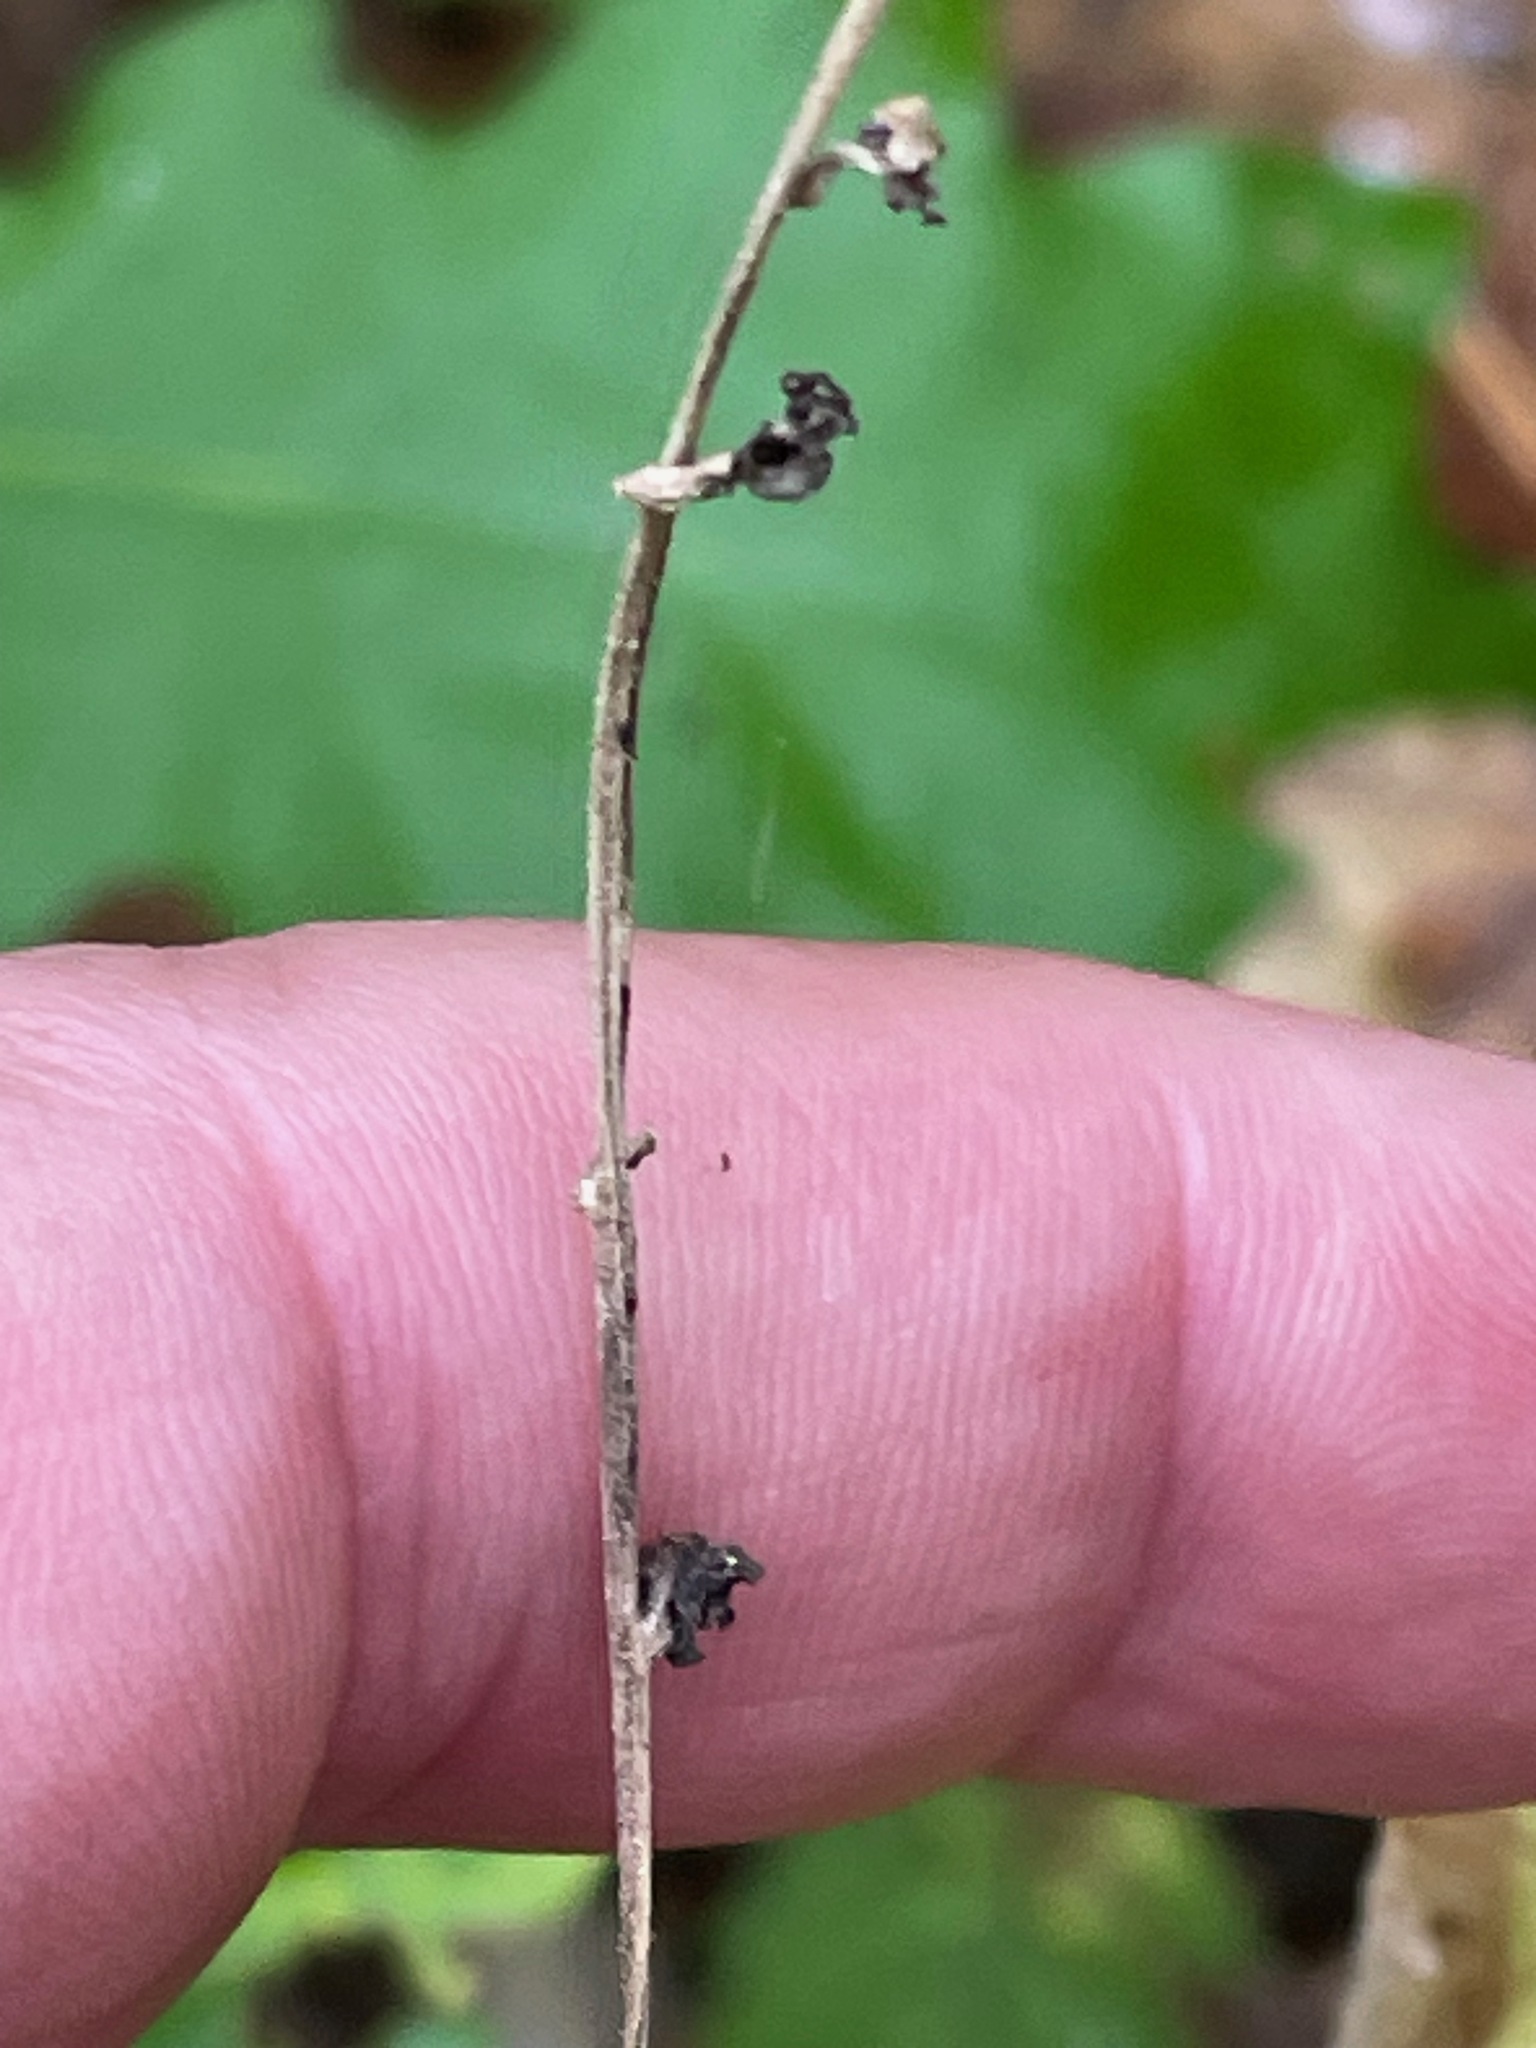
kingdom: Plantae
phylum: Tracheophyta
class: Magnoliopsida
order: Saxifragales
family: Saxifragaceae
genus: Mitella
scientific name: Mitella diphylla
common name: Coolwort
